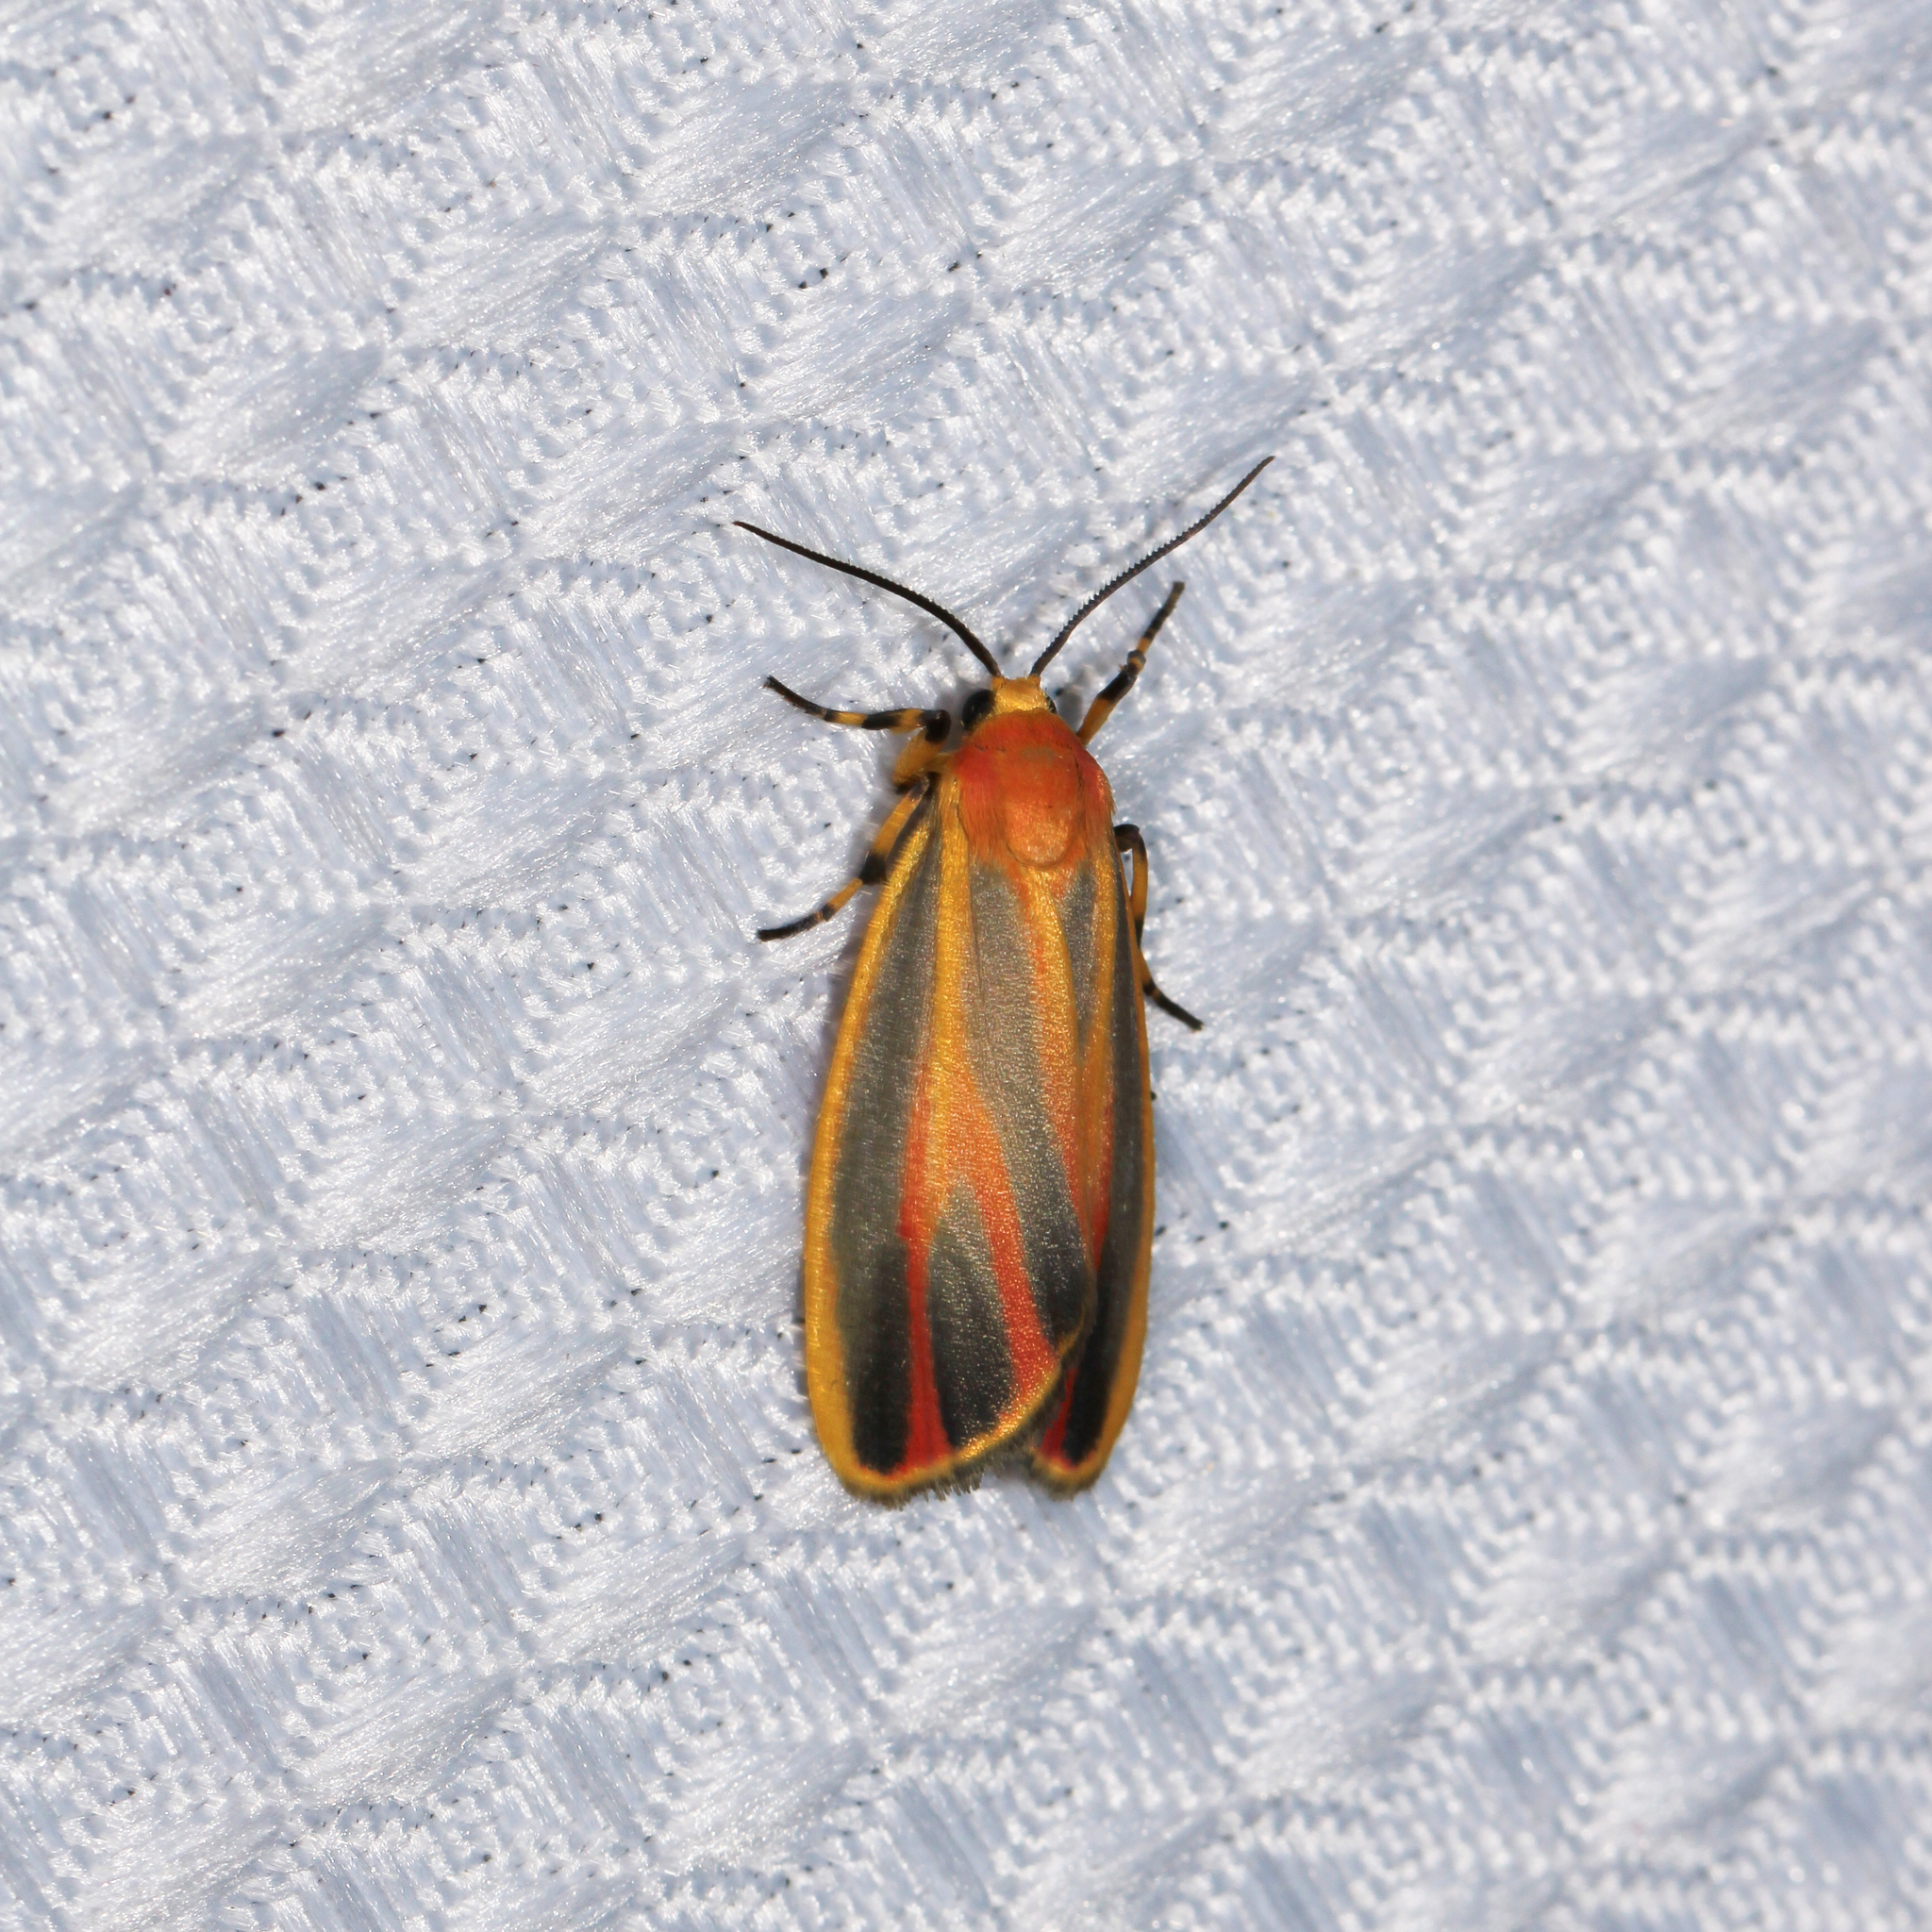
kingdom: Animalia
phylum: Arthropoda
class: Insecta
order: Lepidoptera
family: Erebidae
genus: Hypoprepia
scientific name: Hypoprepia fucosa
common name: Painted lichen moth
